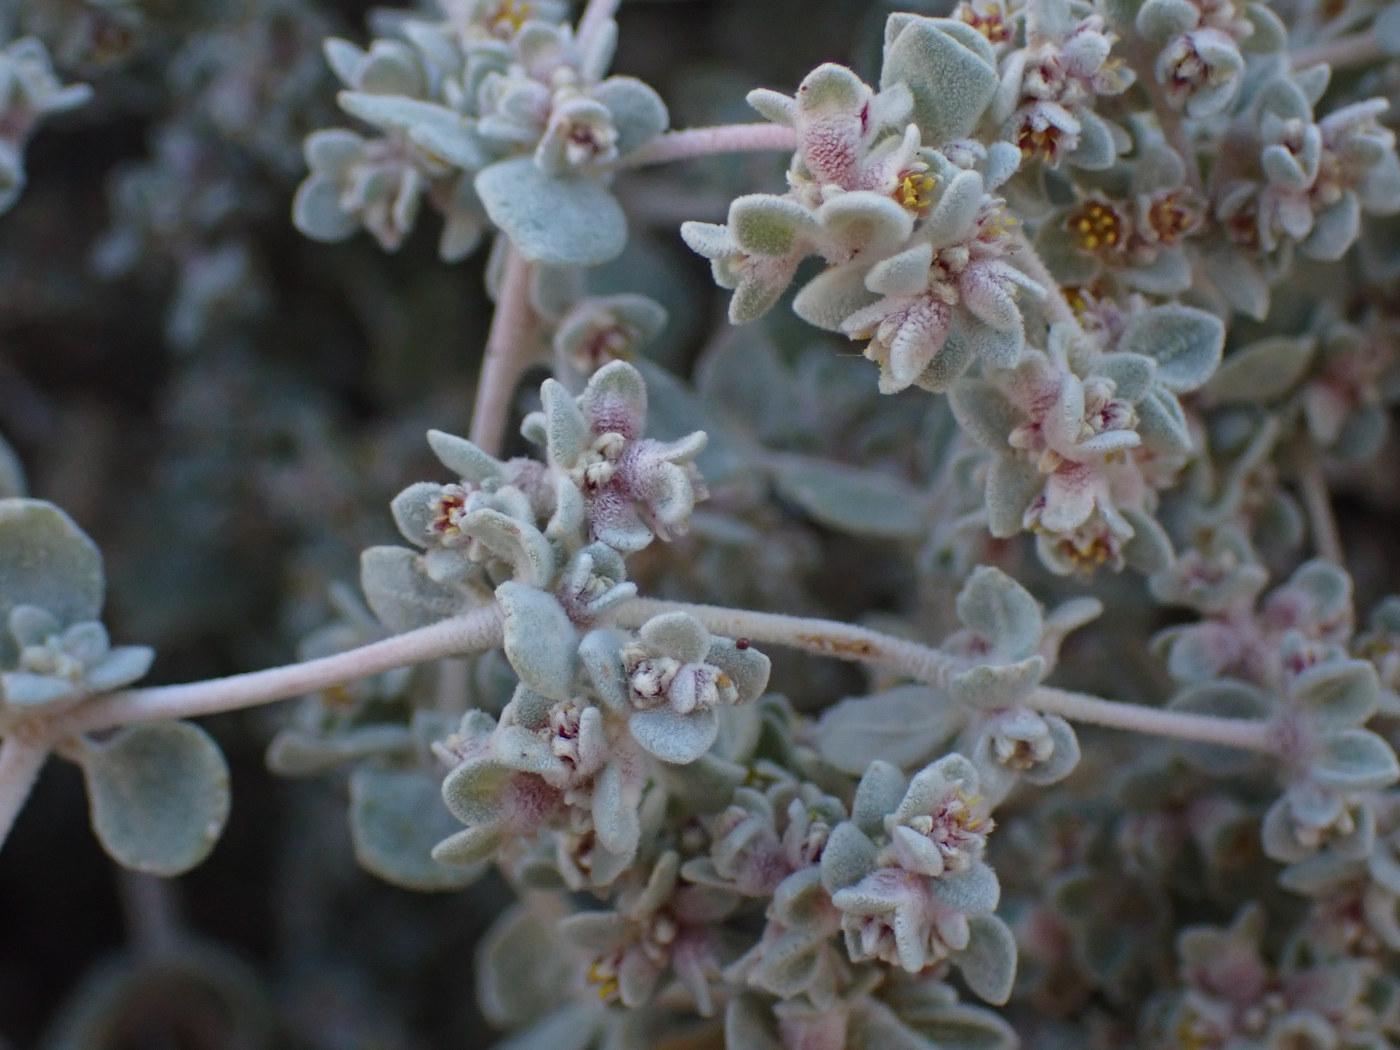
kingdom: Plantae
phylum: Tracheophyta
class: Magnoliopsida
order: Caryophyllales
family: Amaranthaceae
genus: Tidestromia
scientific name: Tidestromia suffruticosa
